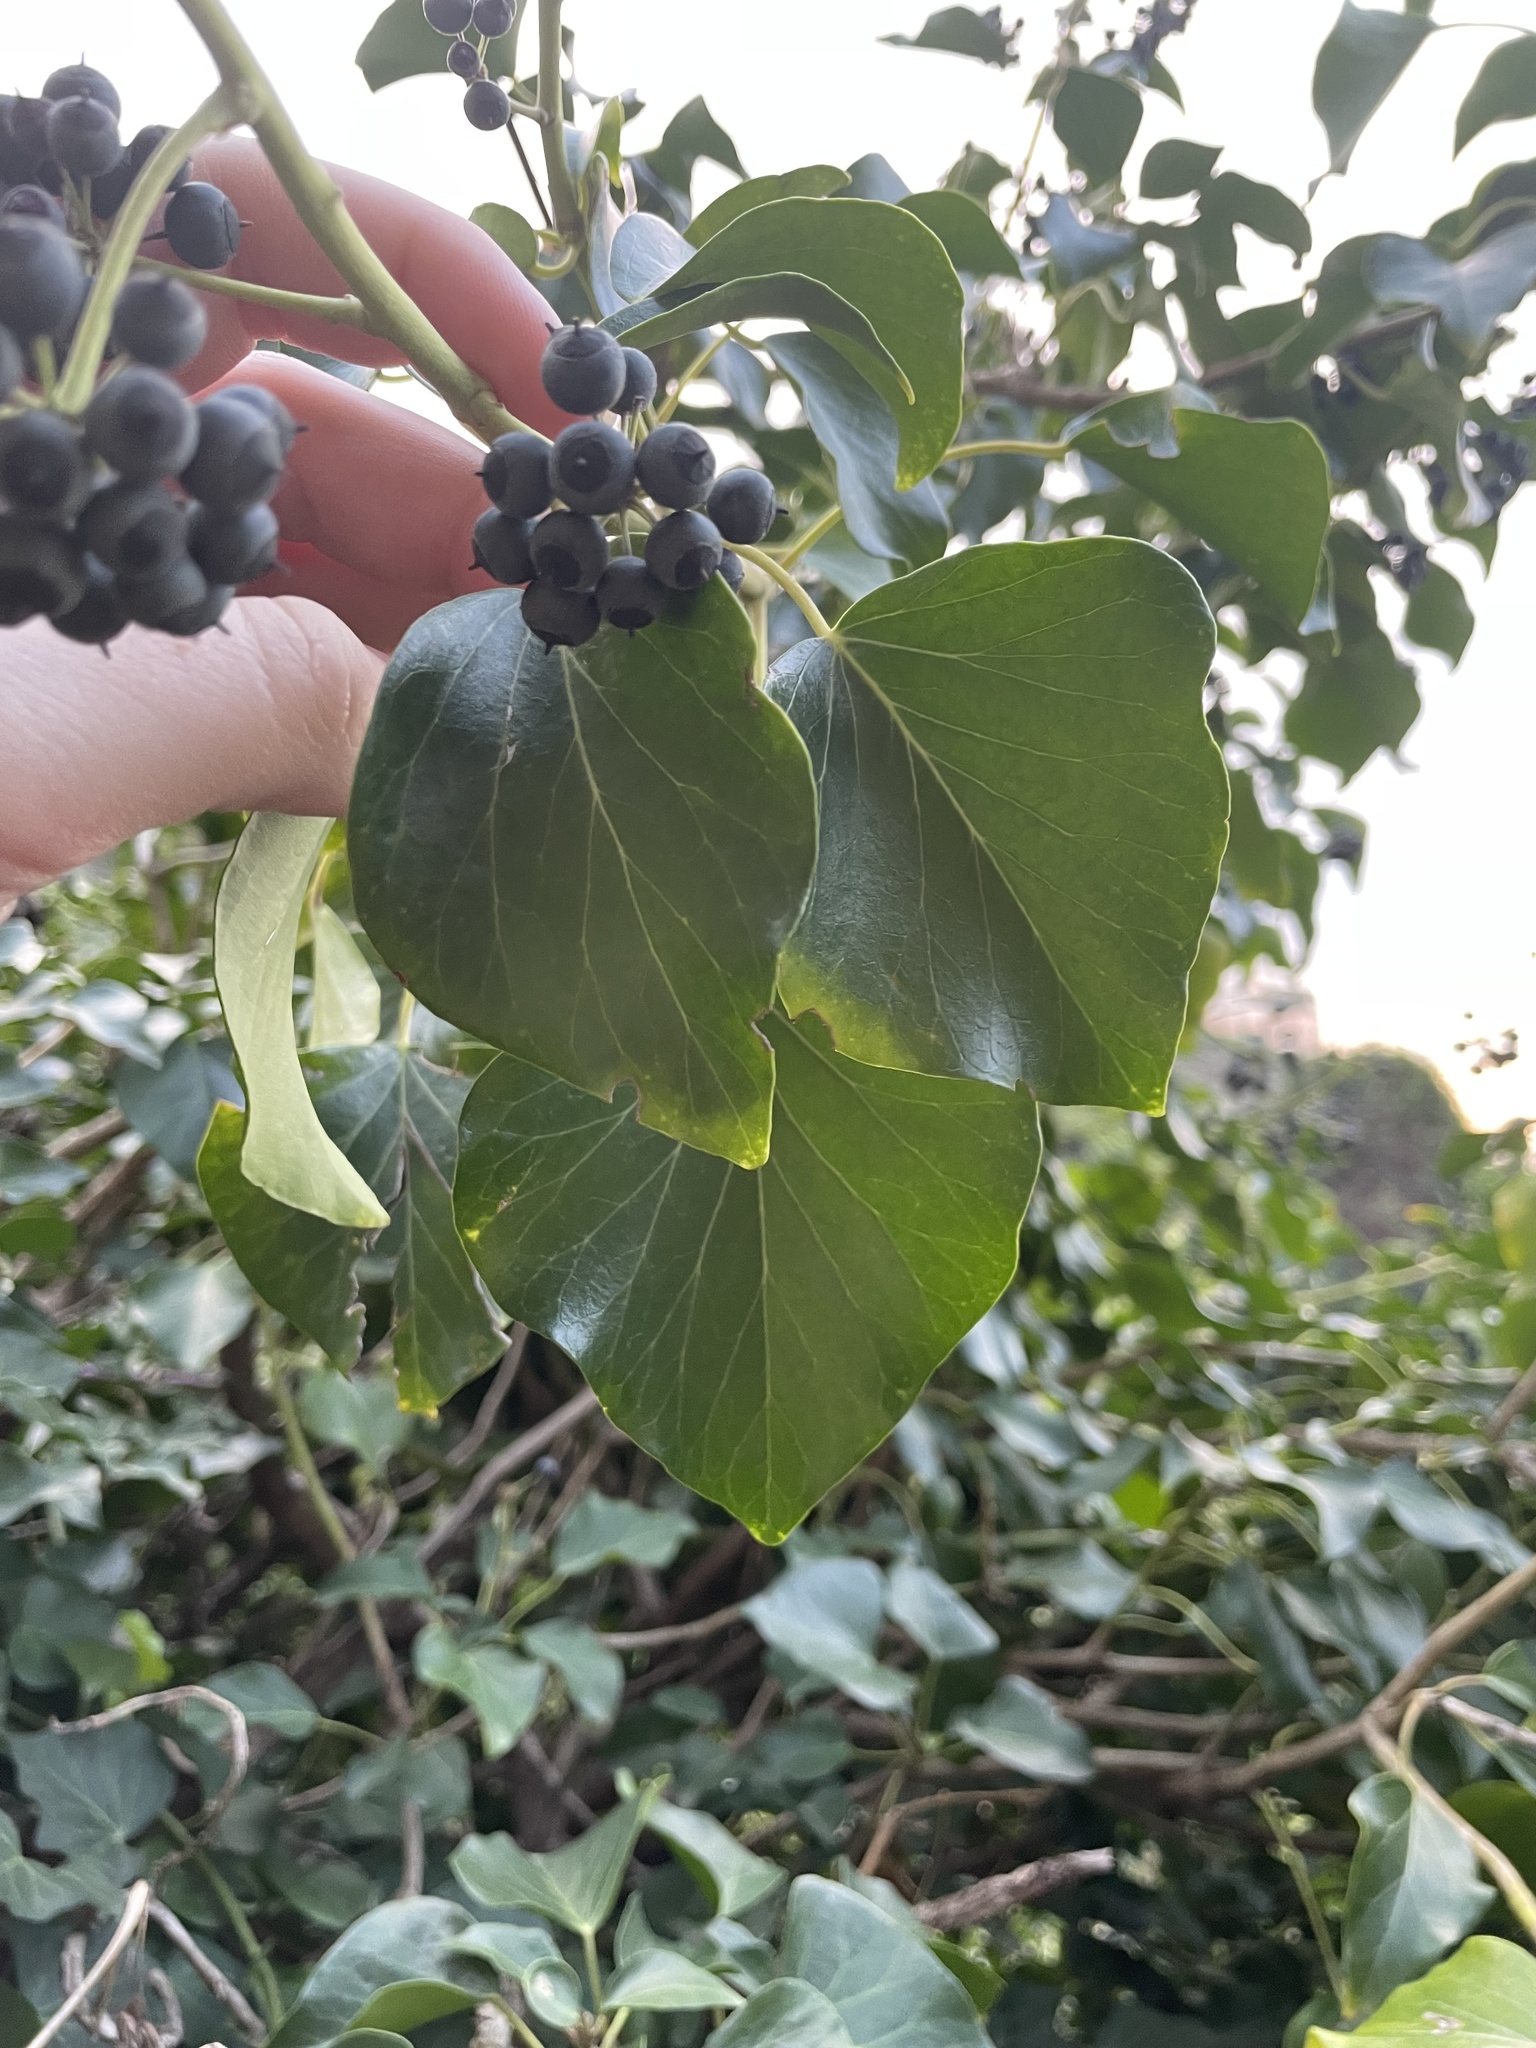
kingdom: Plantae
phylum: Tracheophyta
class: Magnoliopsida
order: Apiales
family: Araliaceae
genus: Hedera
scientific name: Hedera helix
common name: Ivy
